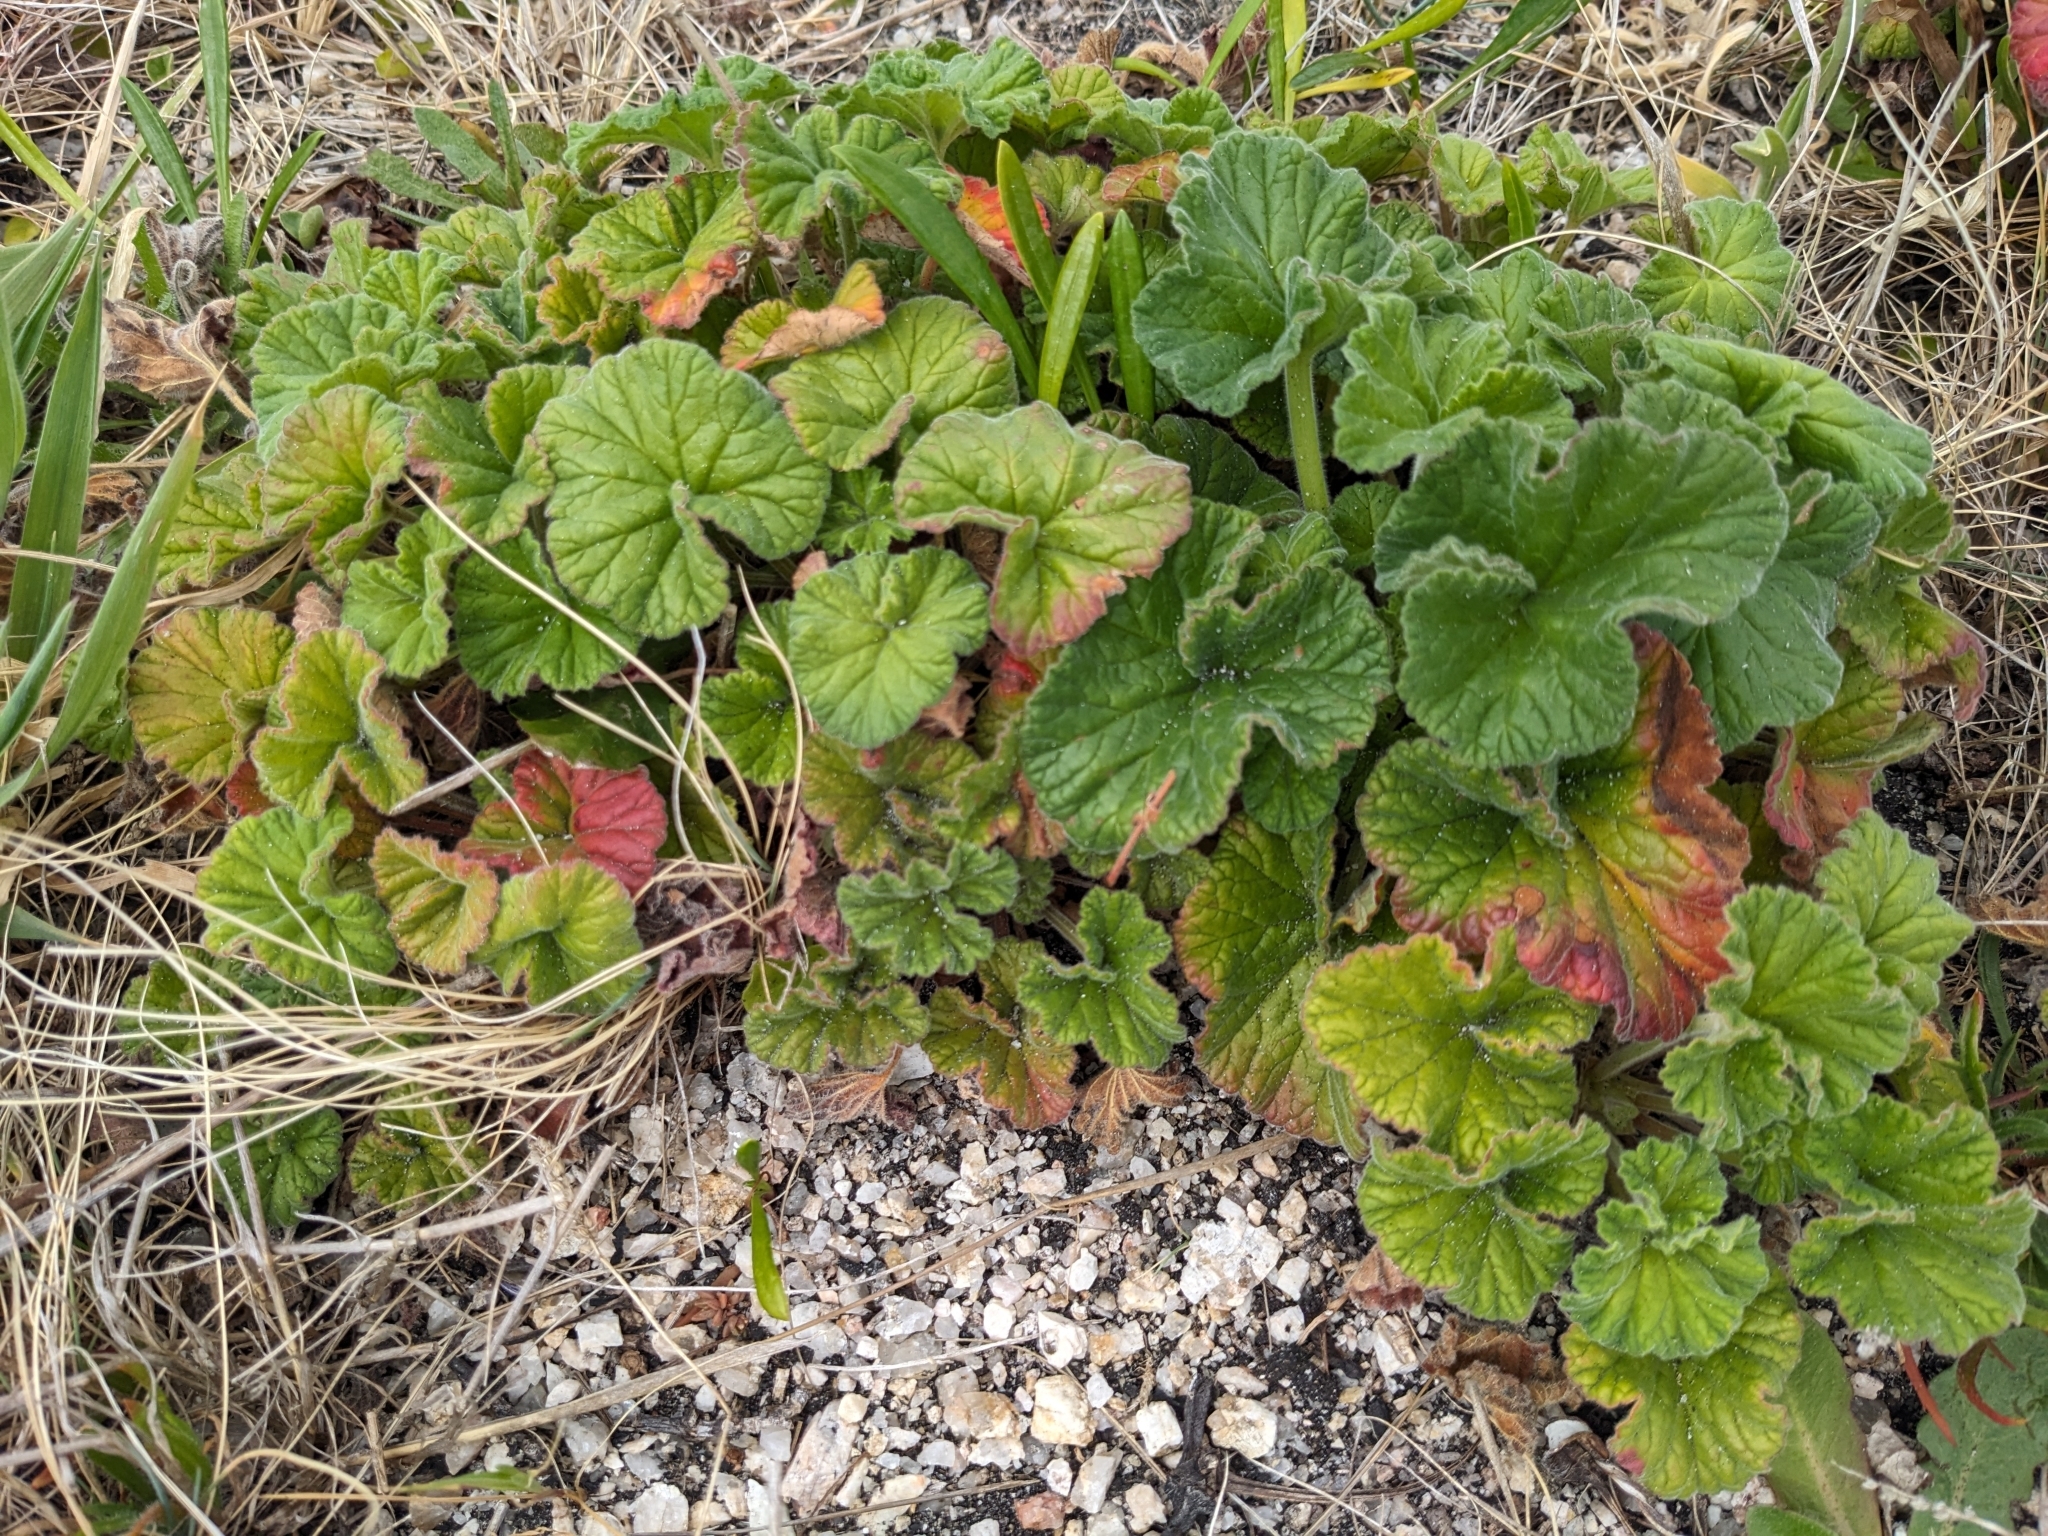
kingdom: Plantae
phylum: Tracheophyta
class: Magnoliopsida
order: Geraniales
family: Geraniaceae
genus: Pelargonium
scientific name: Pelargonium australe
